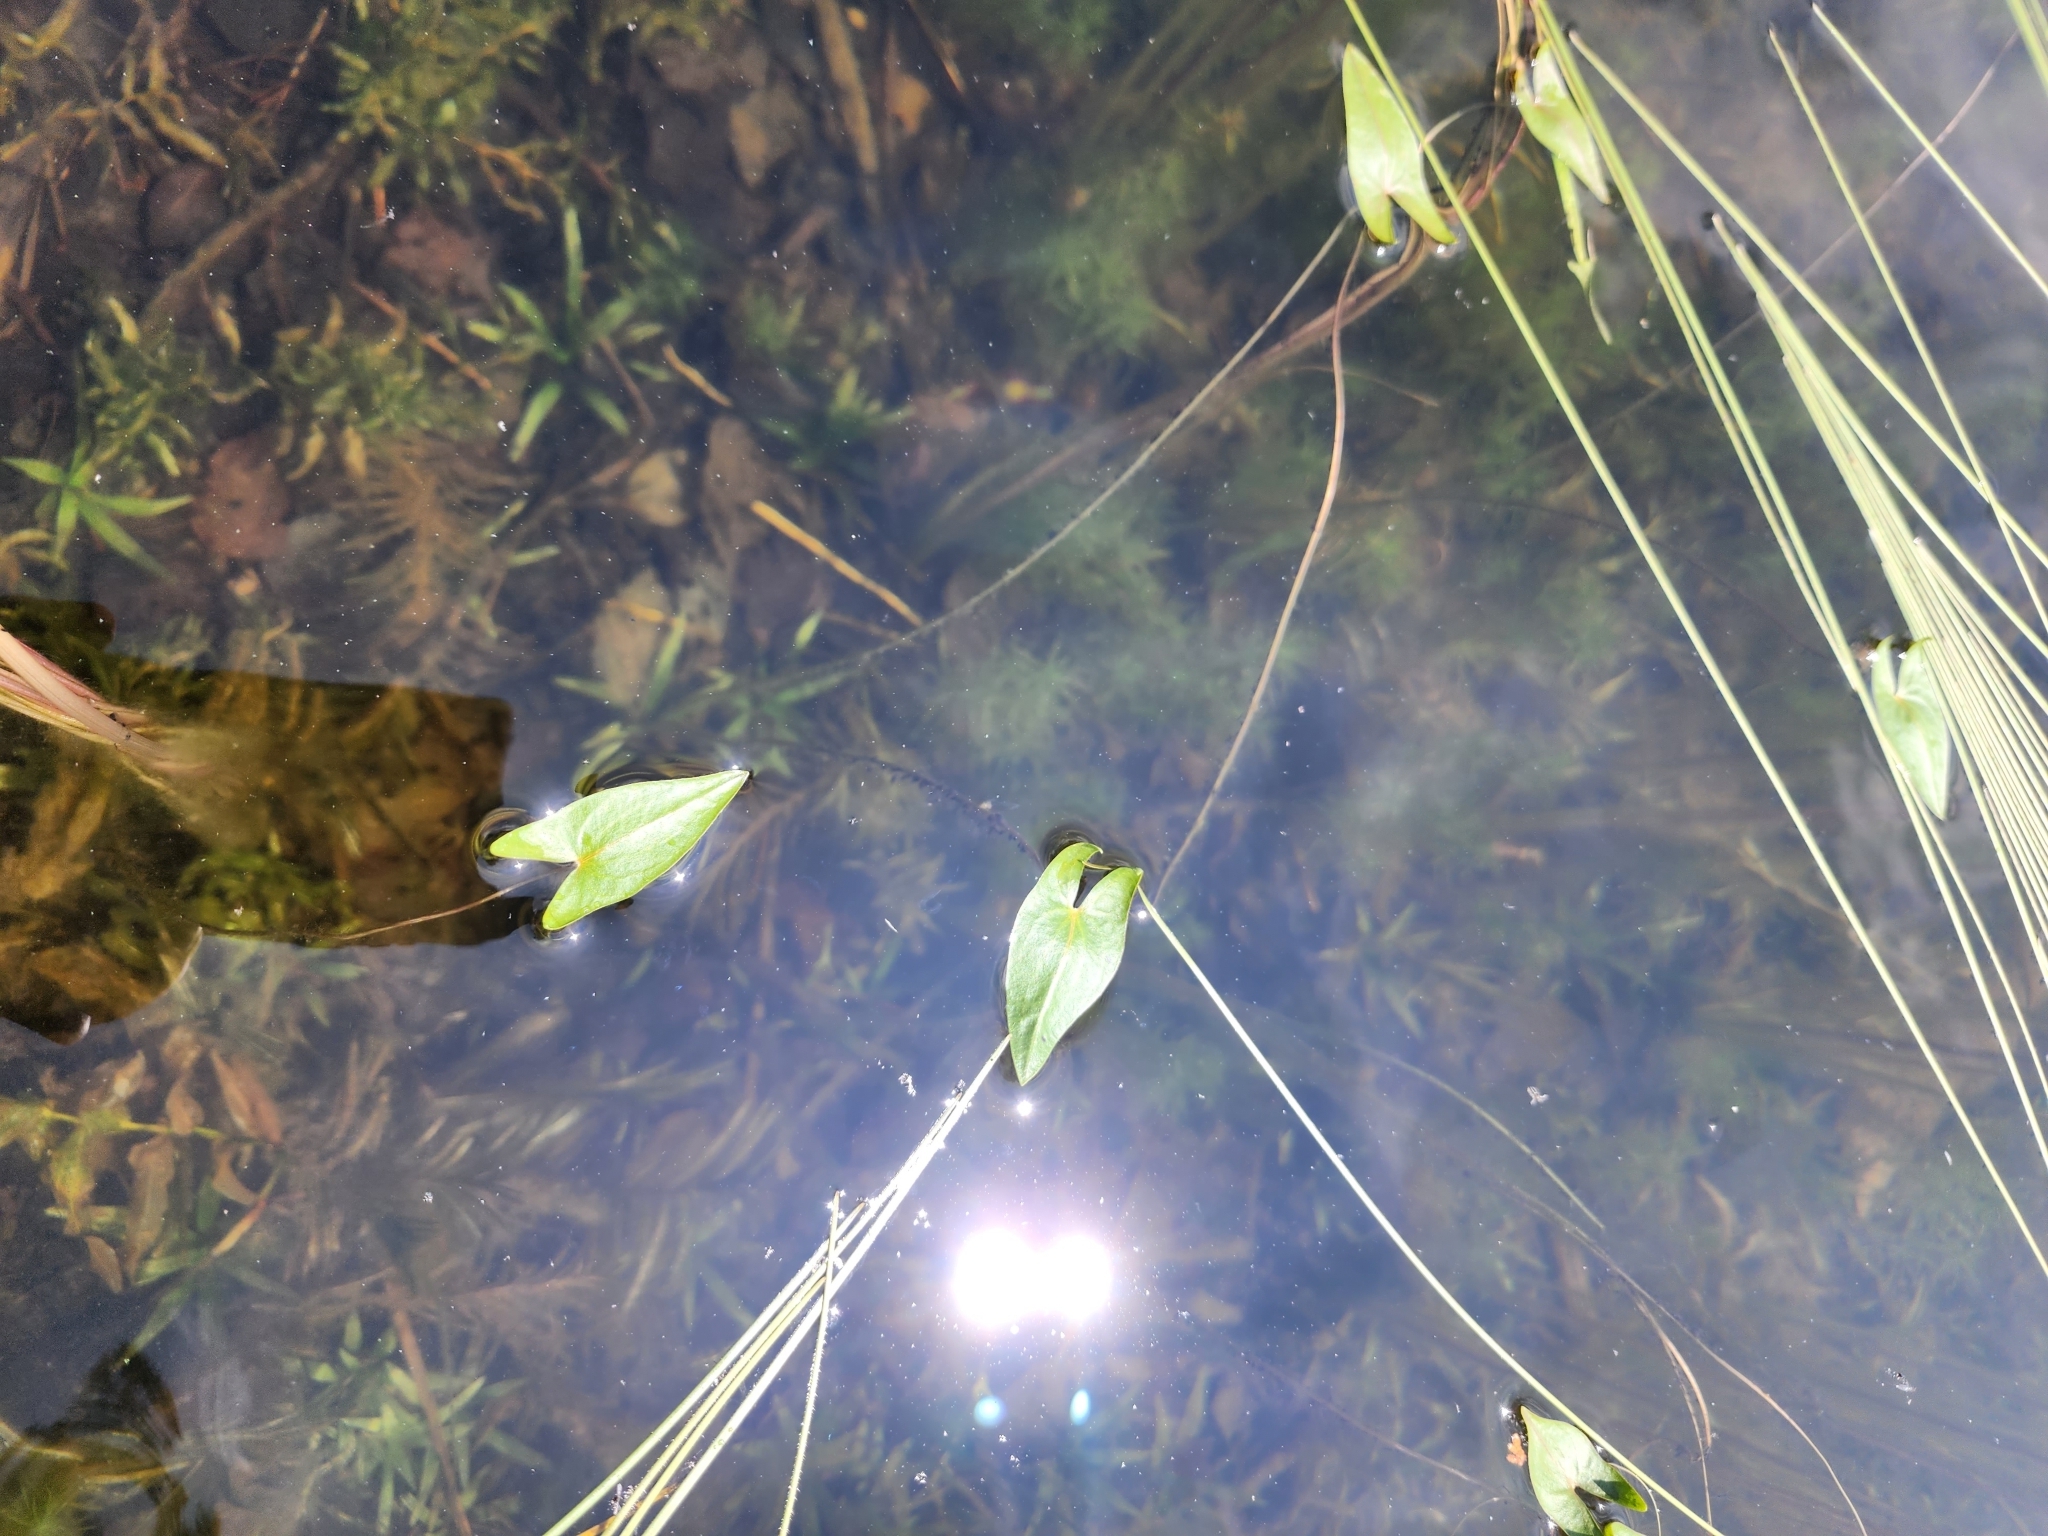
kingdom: Plantae
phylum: Tracheophyta
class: Liliopsida
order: Alismatales
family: Alismataceae
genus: Sagittaria
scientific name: Sagittaria cuneata
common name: Northern arrowhead
